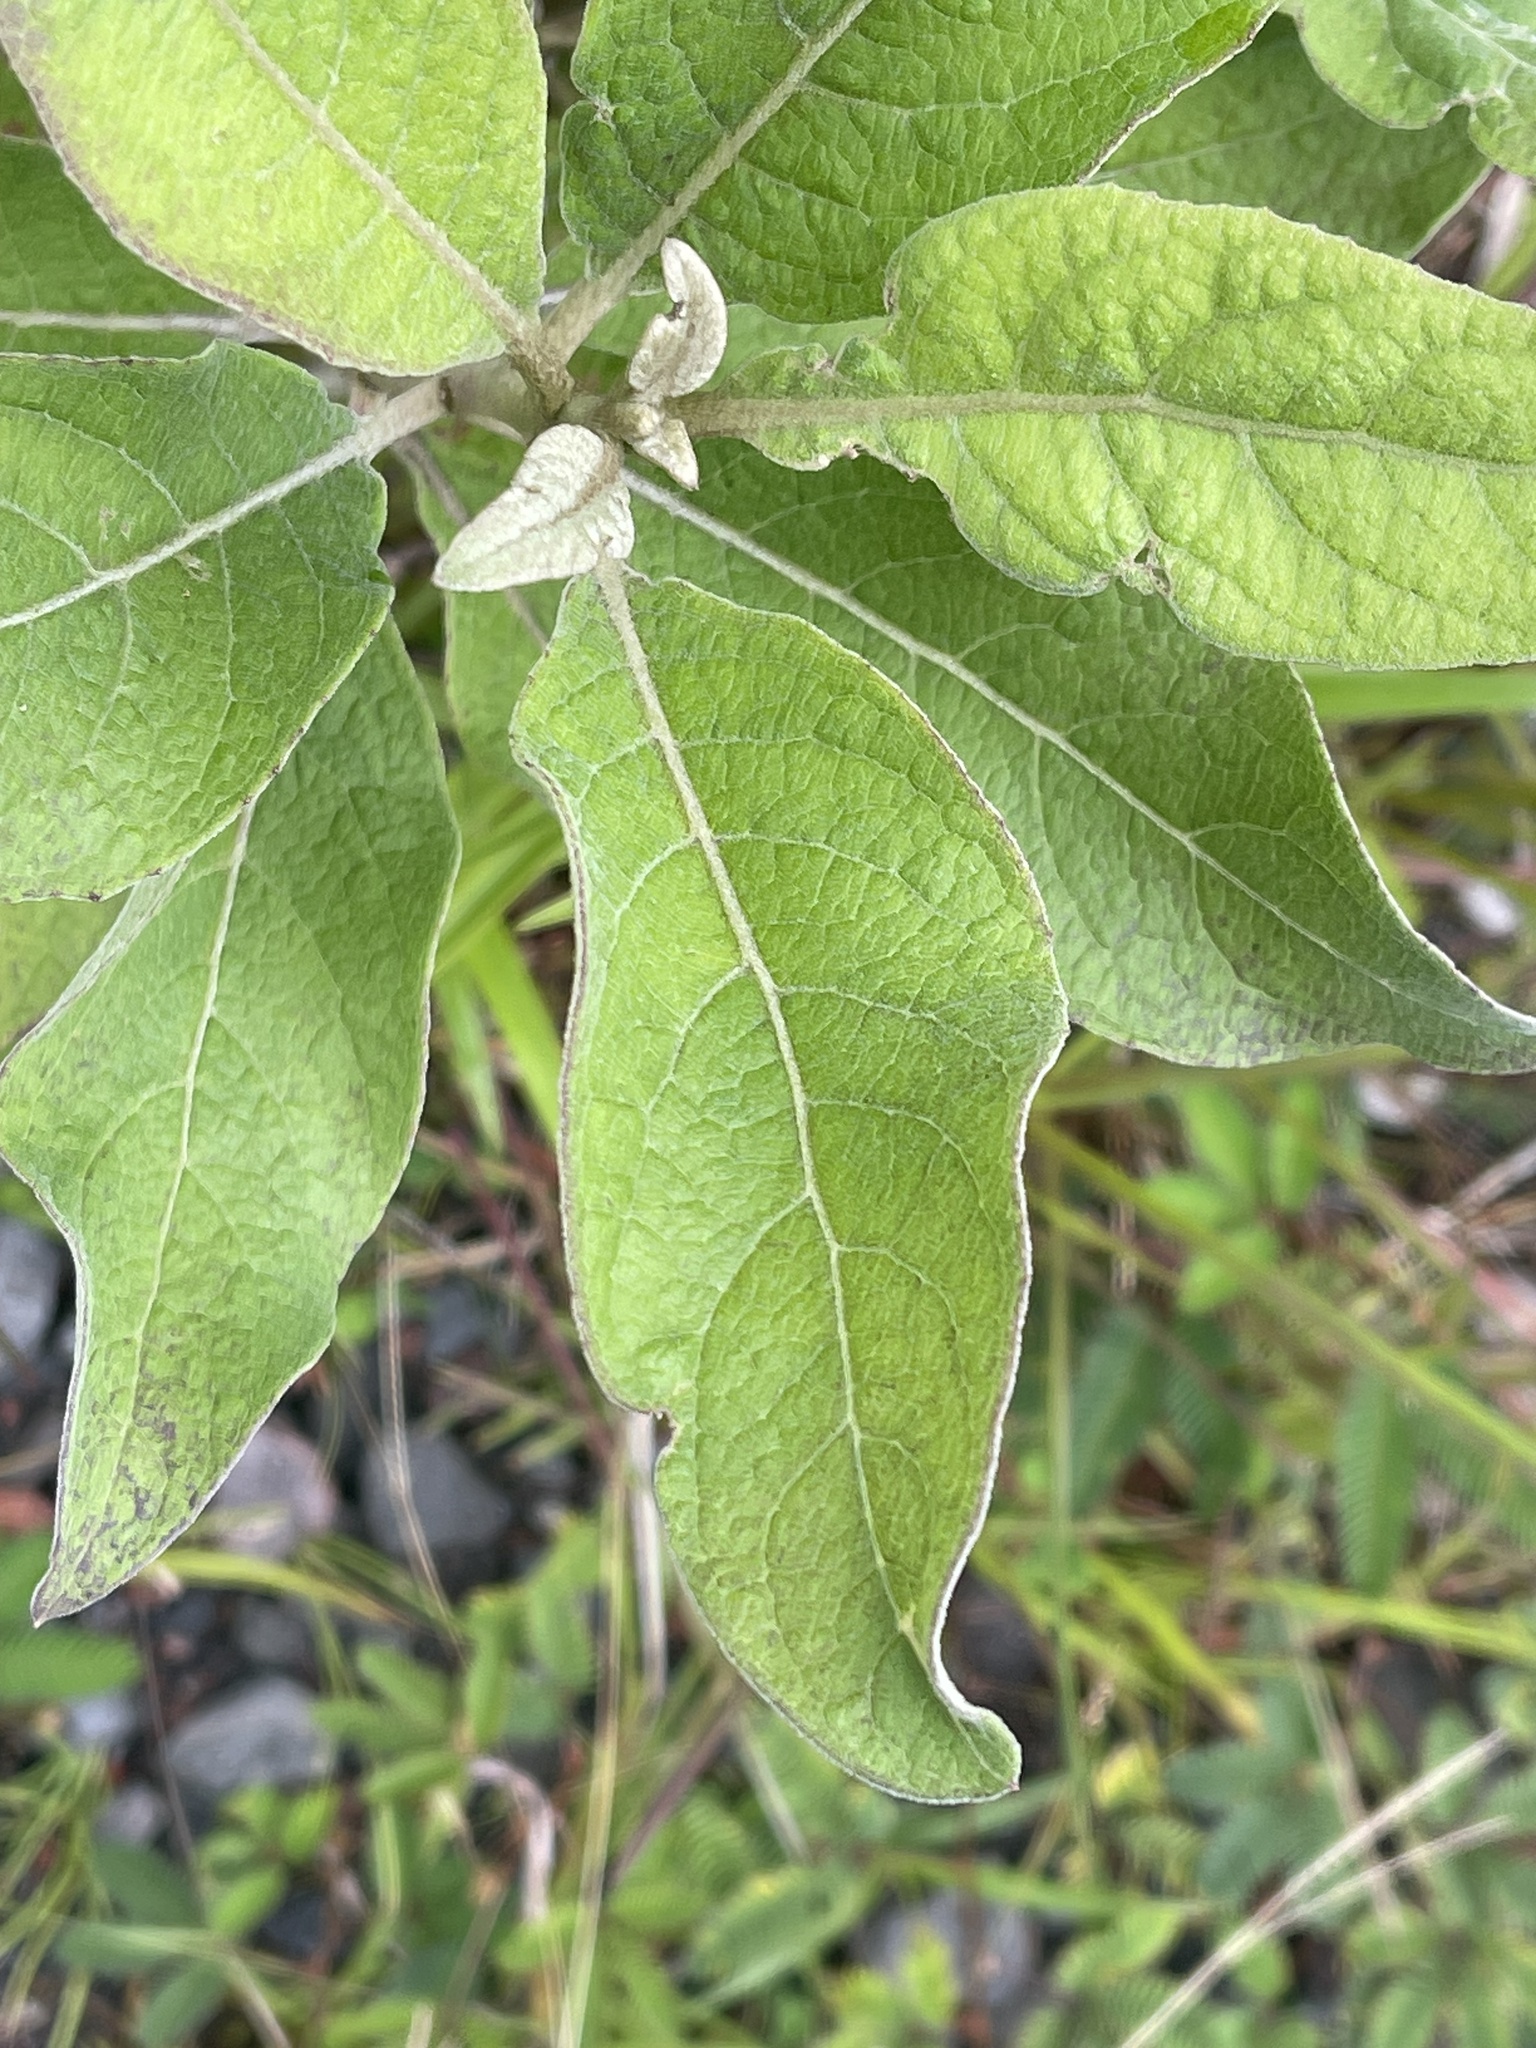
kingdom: Plantae
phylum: Tracheophyta
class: Magnoliopsida
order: Asterales
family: Asteraceae
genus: Pluchea
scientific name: Pluchea carolinensis
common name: Marsh fleabane
